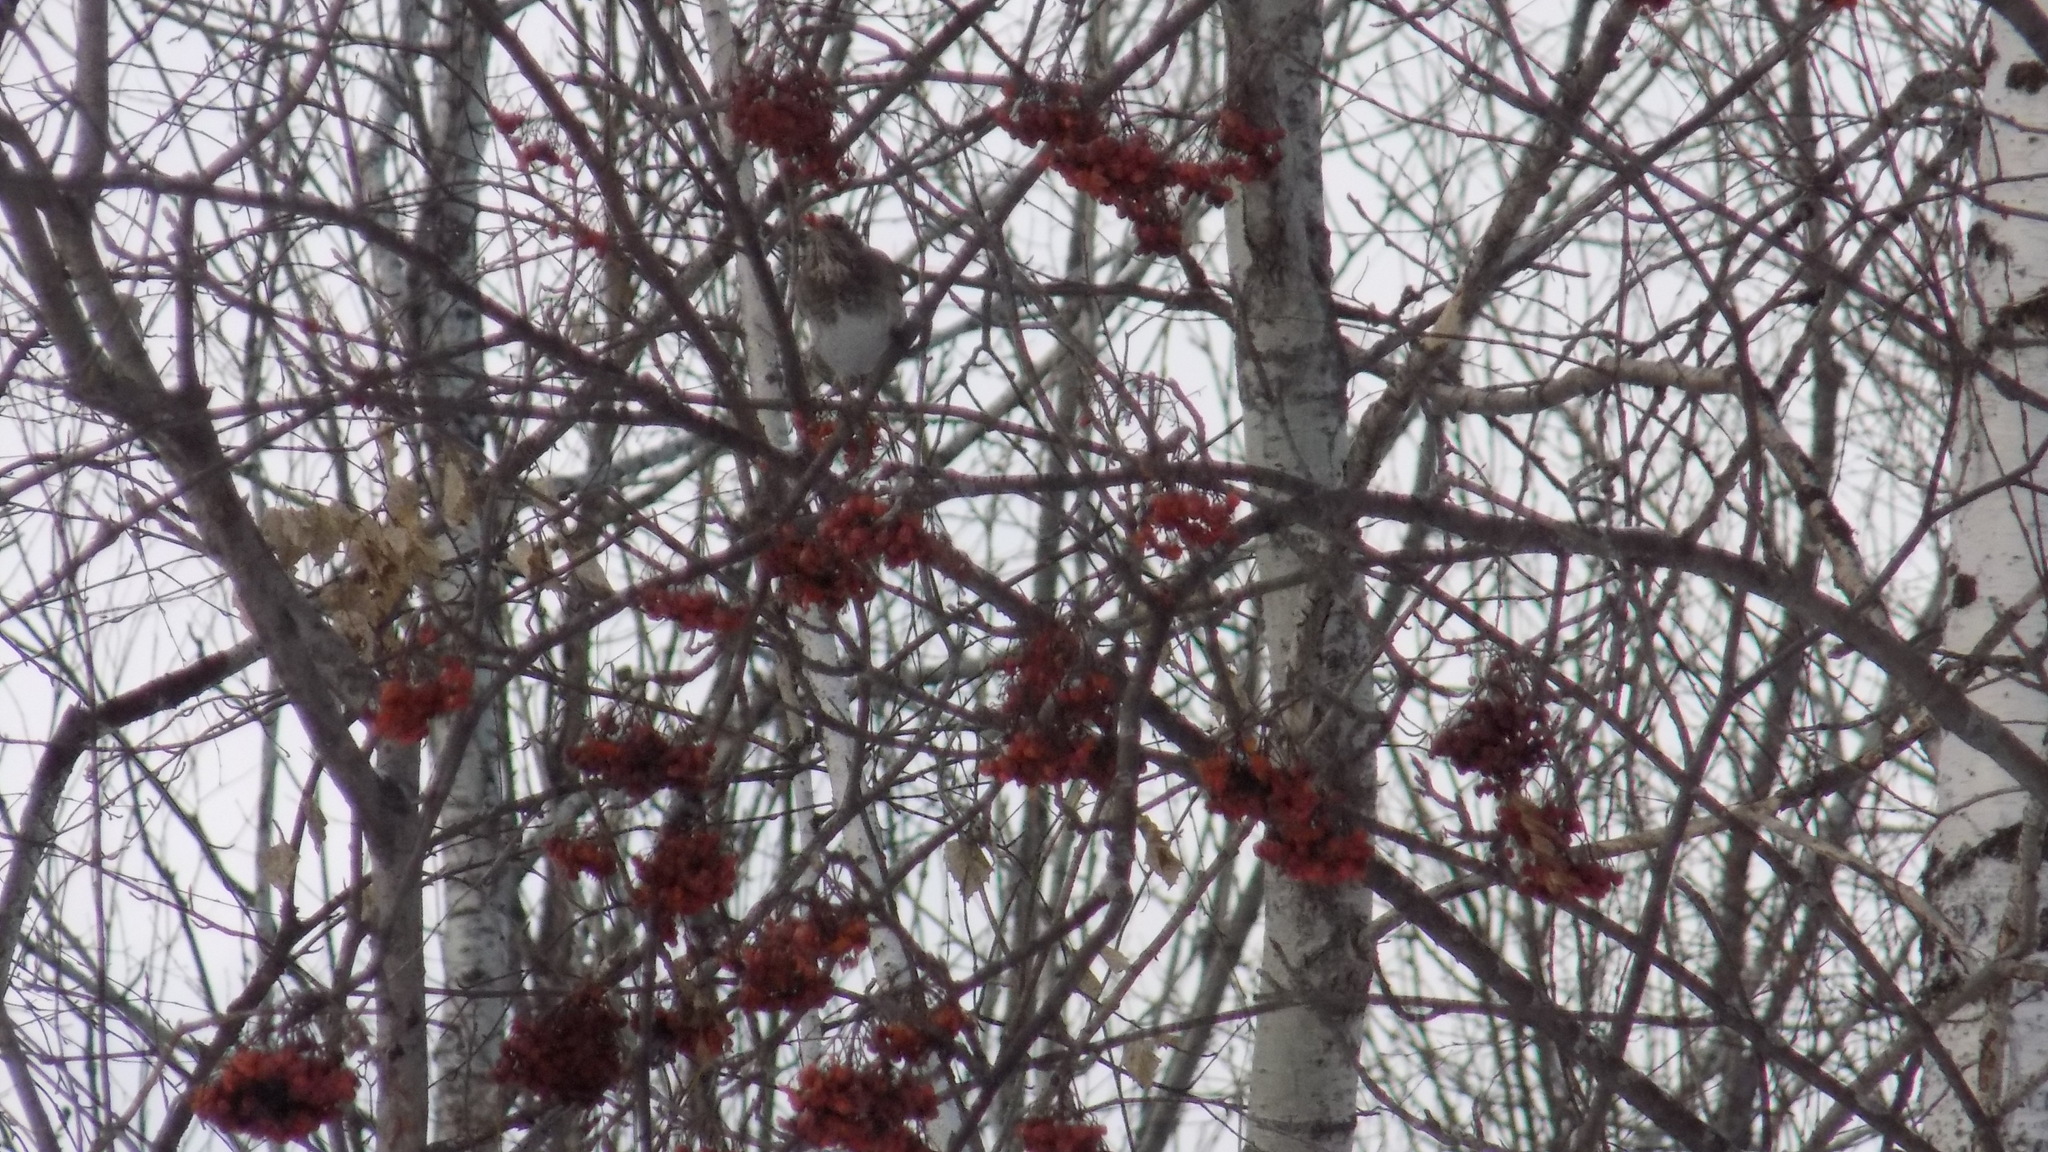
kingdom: Animalia
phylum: Chordata
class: Aves
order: Passeriformes
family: Turdidae
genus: Turdus
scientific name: Turdus atrogularis
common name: Black-throated thrush
